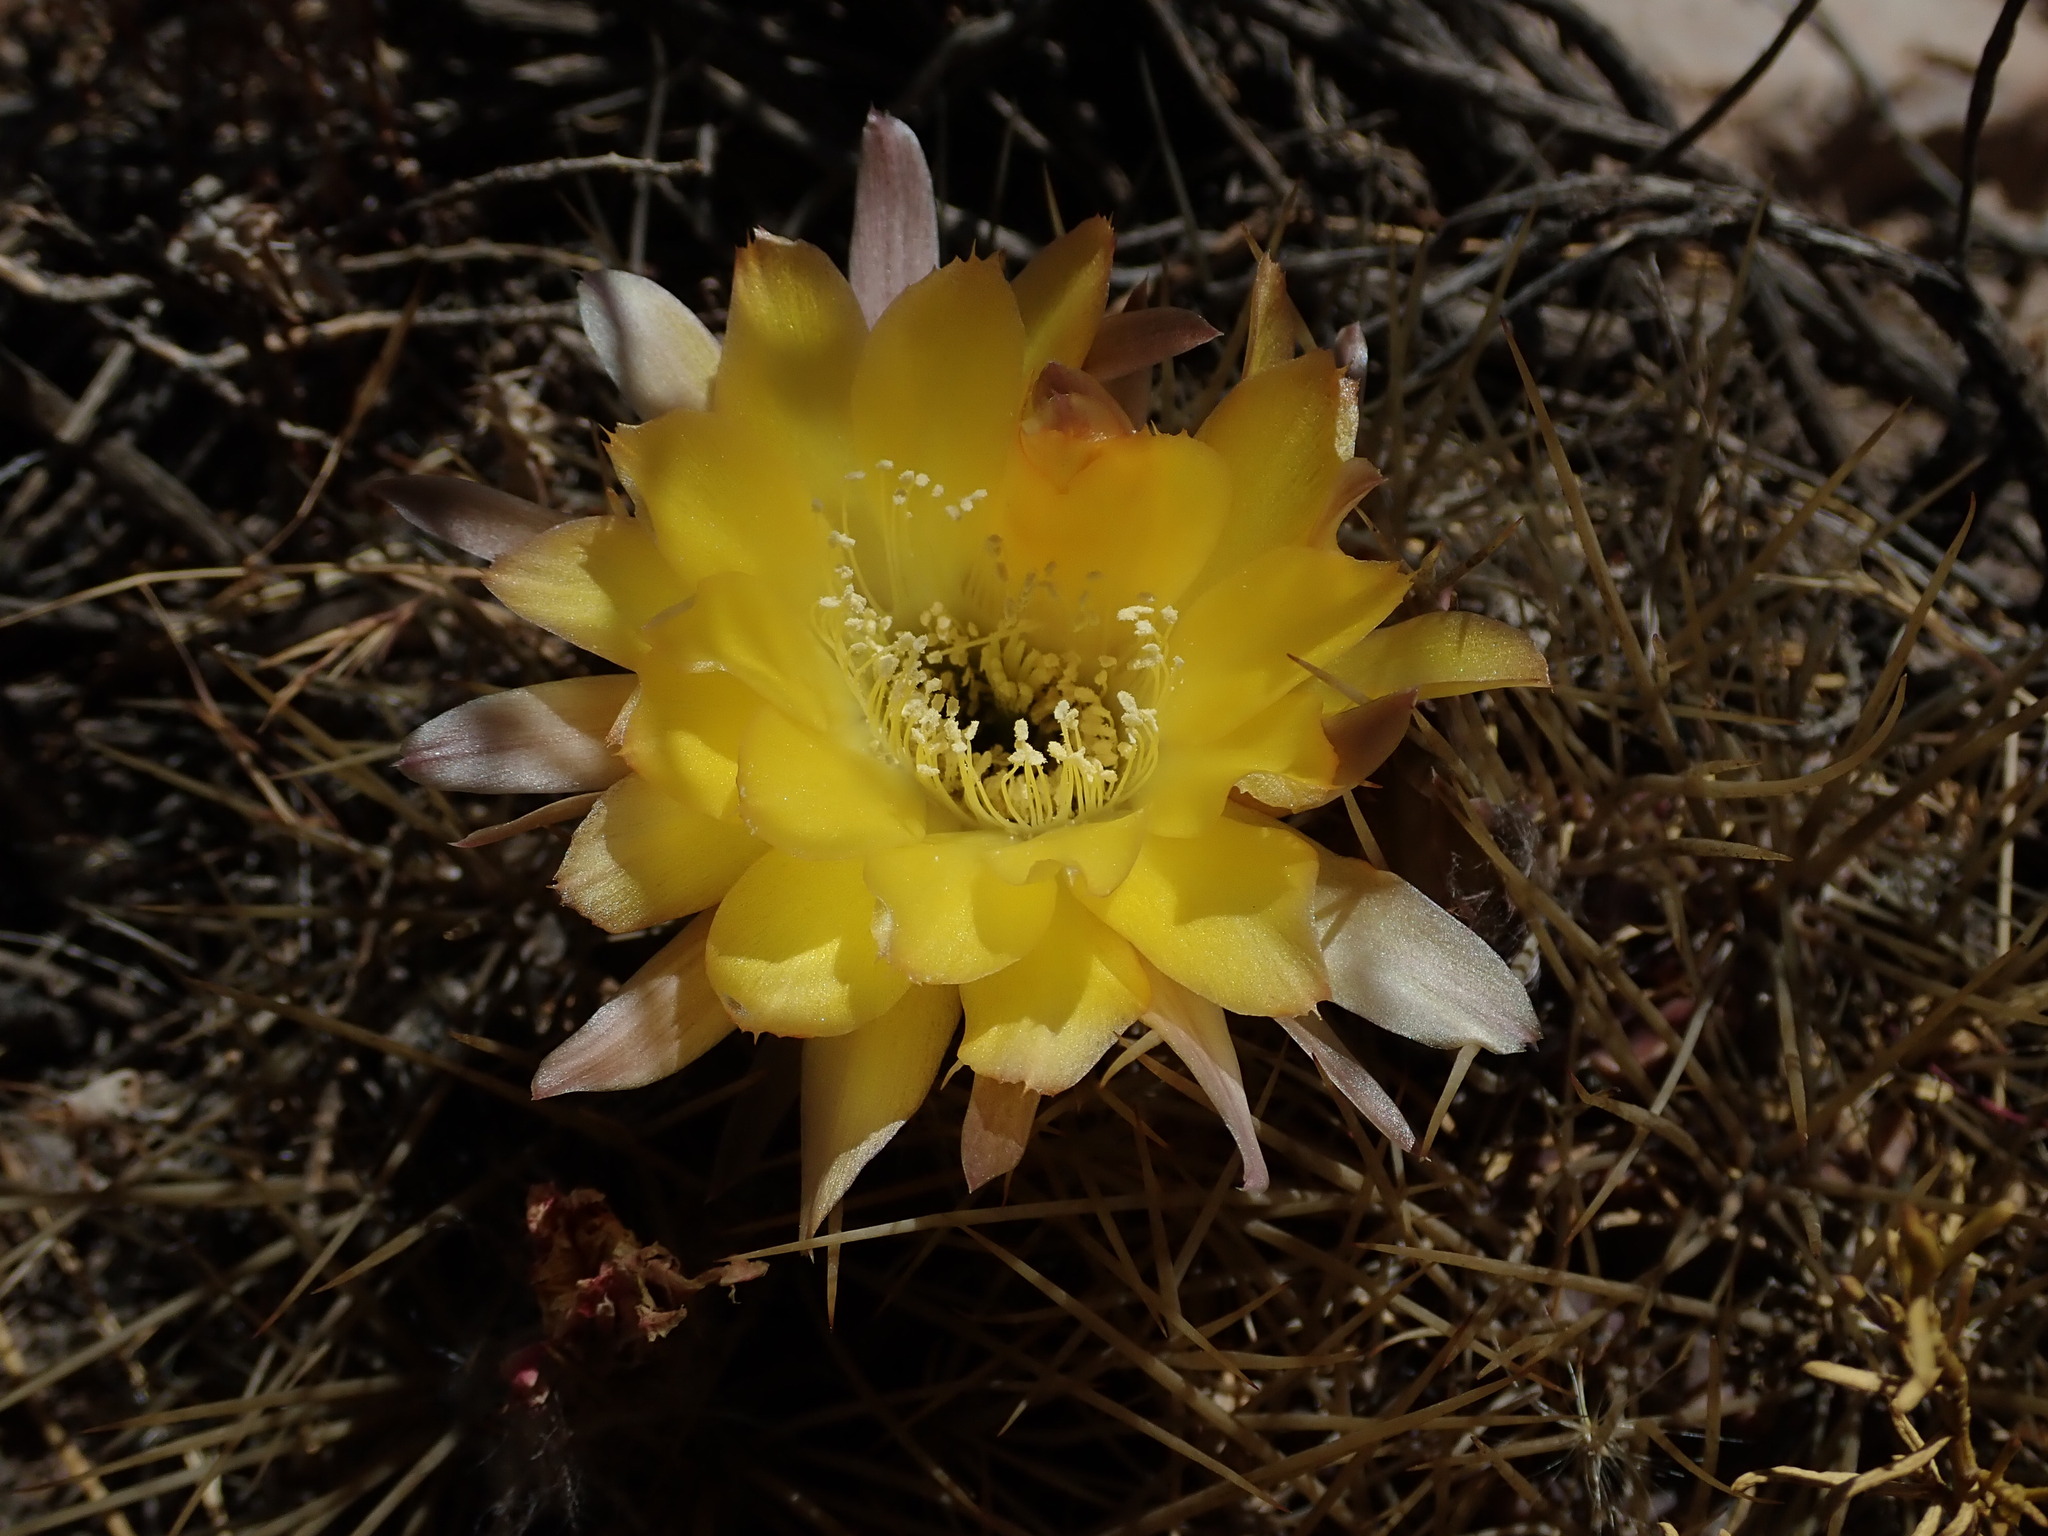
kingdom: Plantae
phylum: Tracheophyta
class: Magnoliopsida
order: Caryophyllales
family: Cactaceae
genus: Lobivia
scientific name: Lobivia ferox
